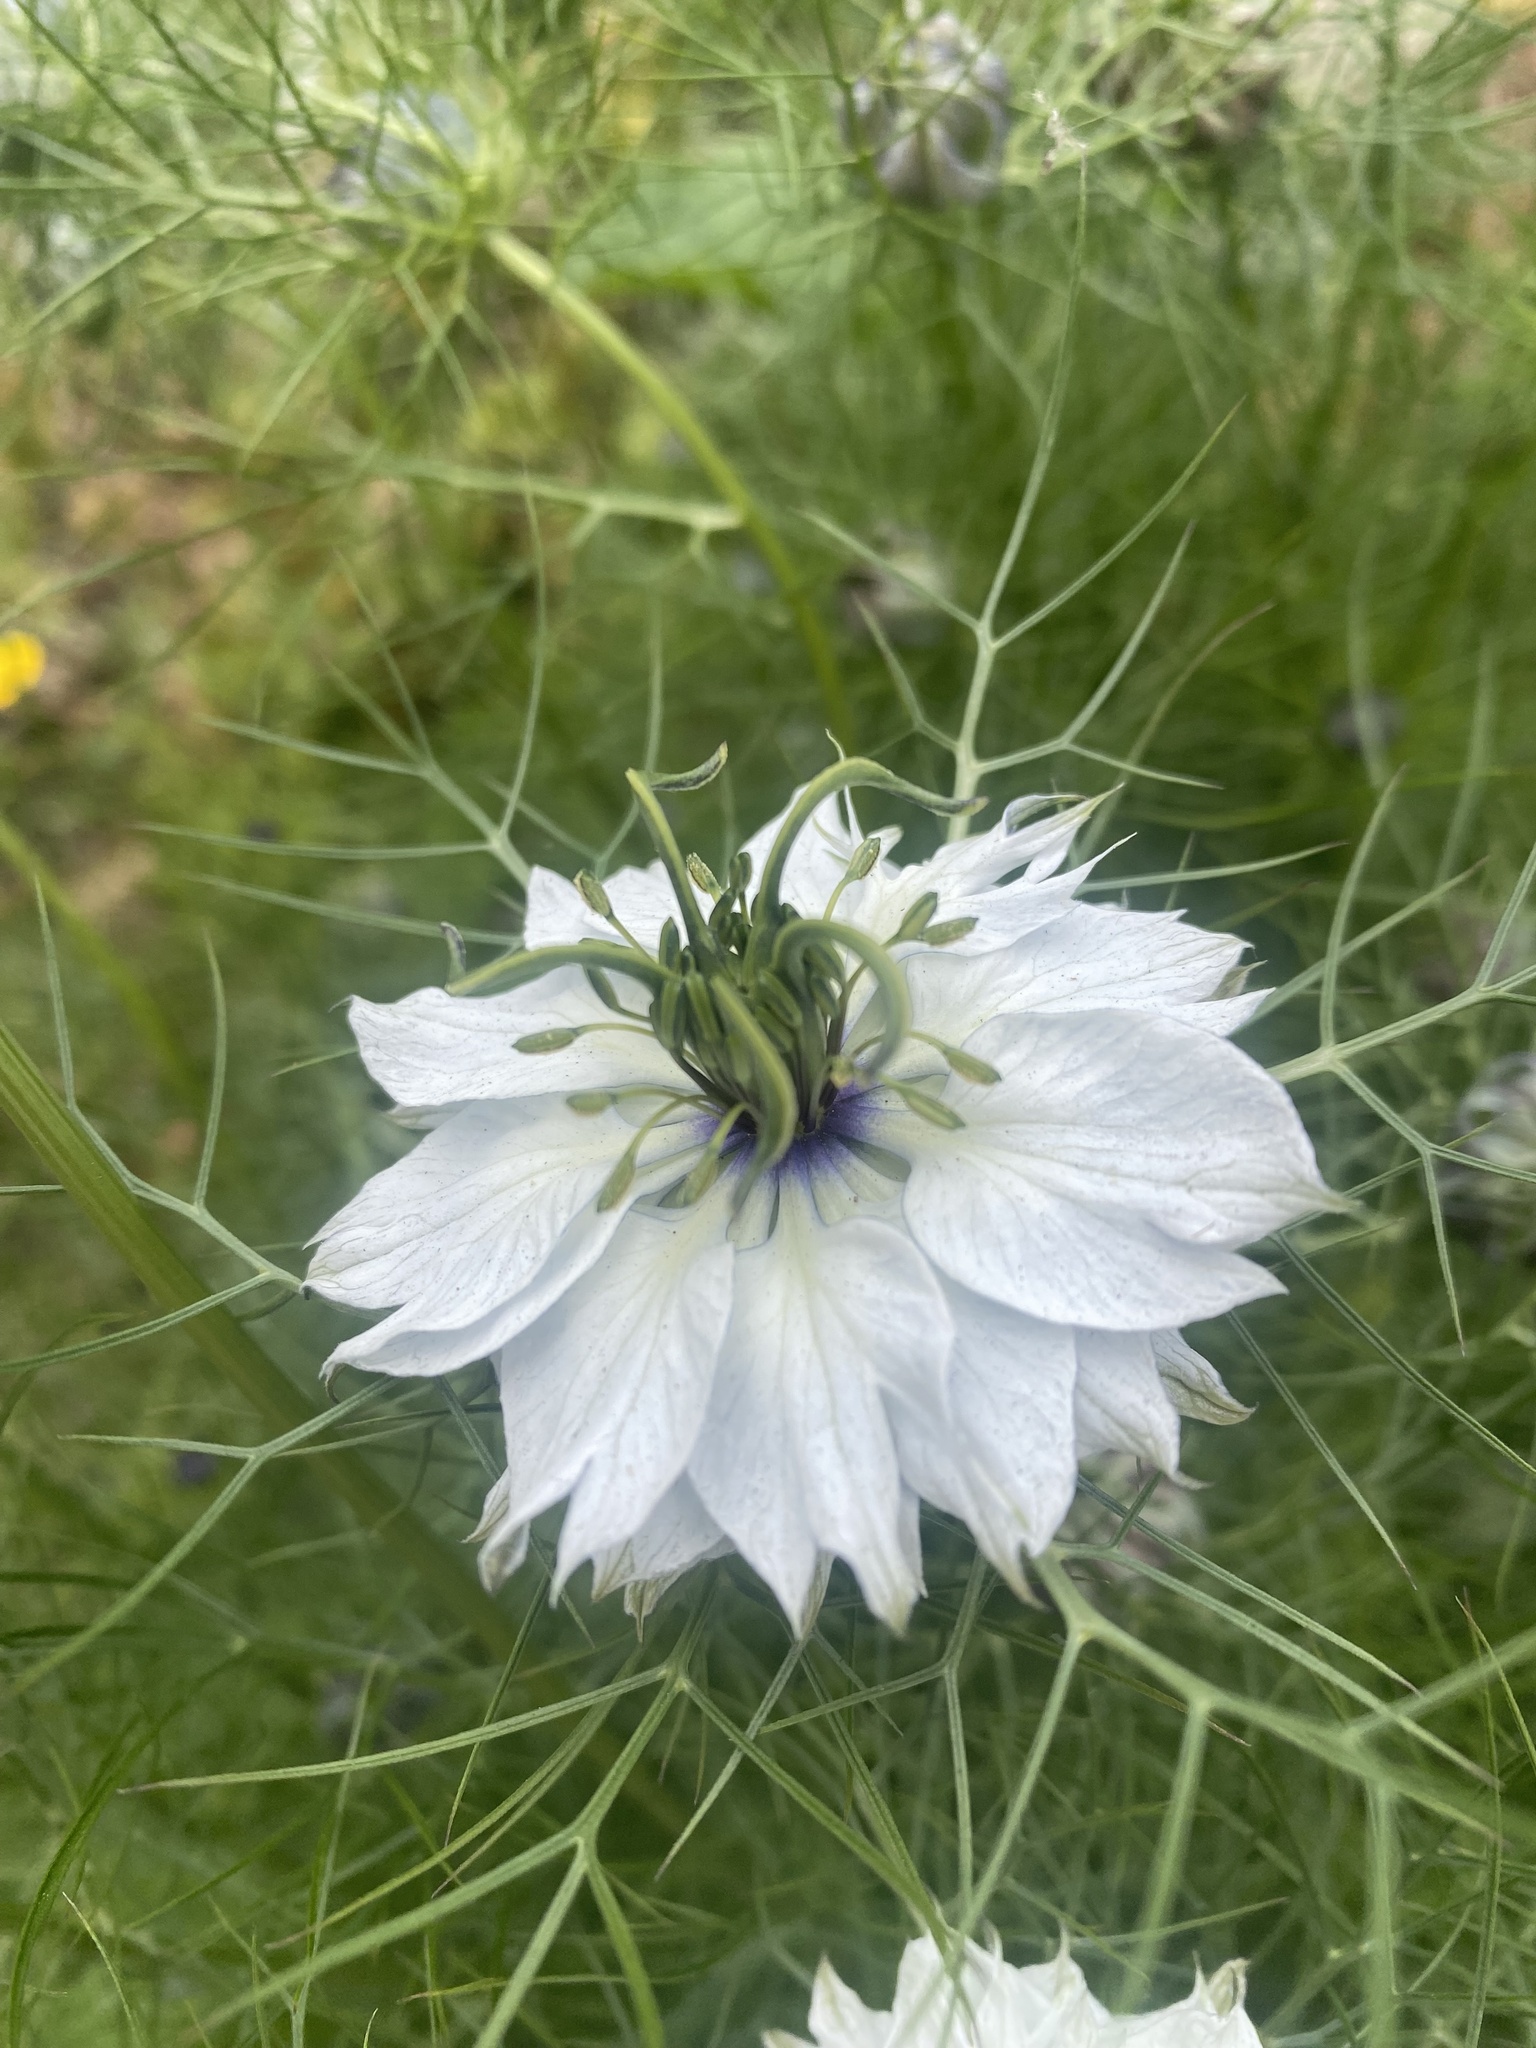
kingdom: Plantae
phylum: Tracheophyta
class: Magnoliopsida
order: Ranunculales
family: Ranunculaceae
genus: Nigella
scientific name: Nigella damascena
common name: Love-in-a-mist
